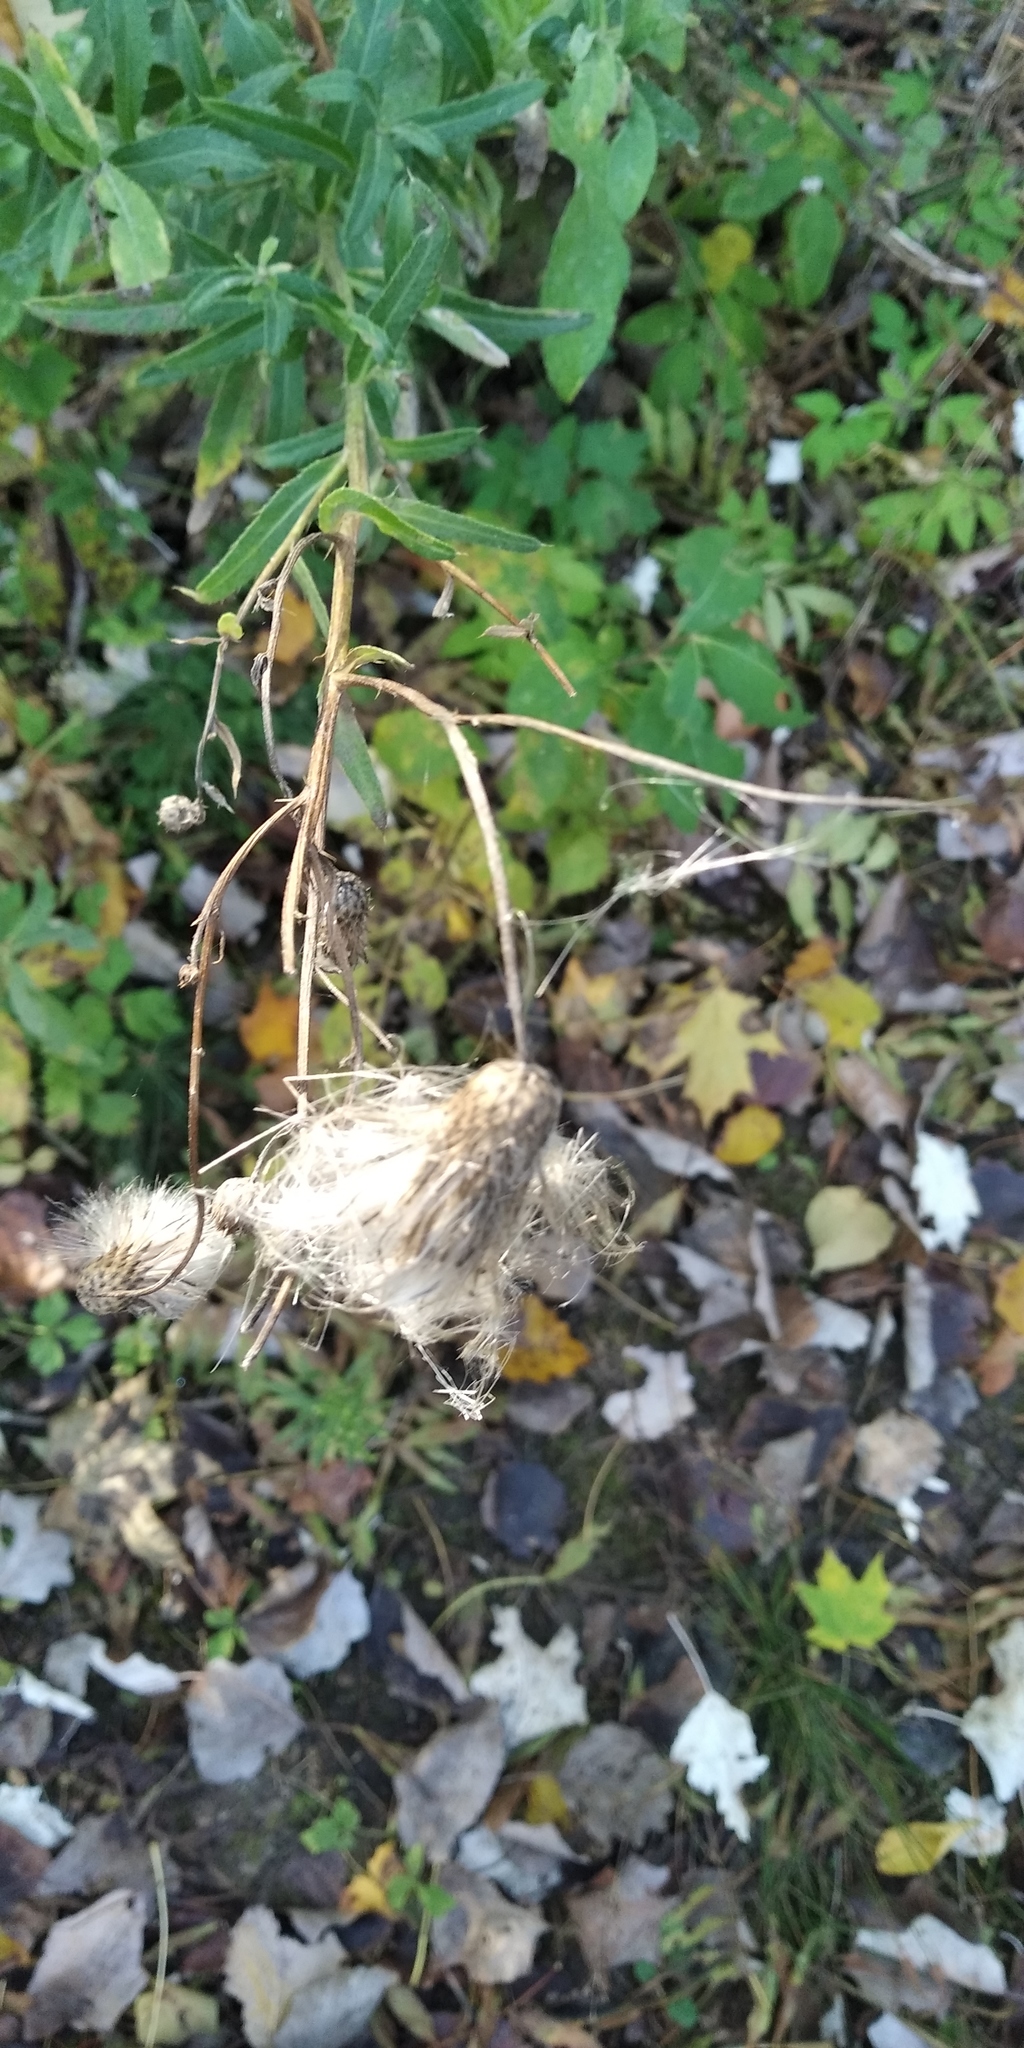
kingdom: Plantae
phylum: Tracheophyta
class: Magnoliopsida
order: Asterales
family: Asteraceae
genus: Cirsium
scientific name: Cirsium arvense
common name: Creeping thistle
